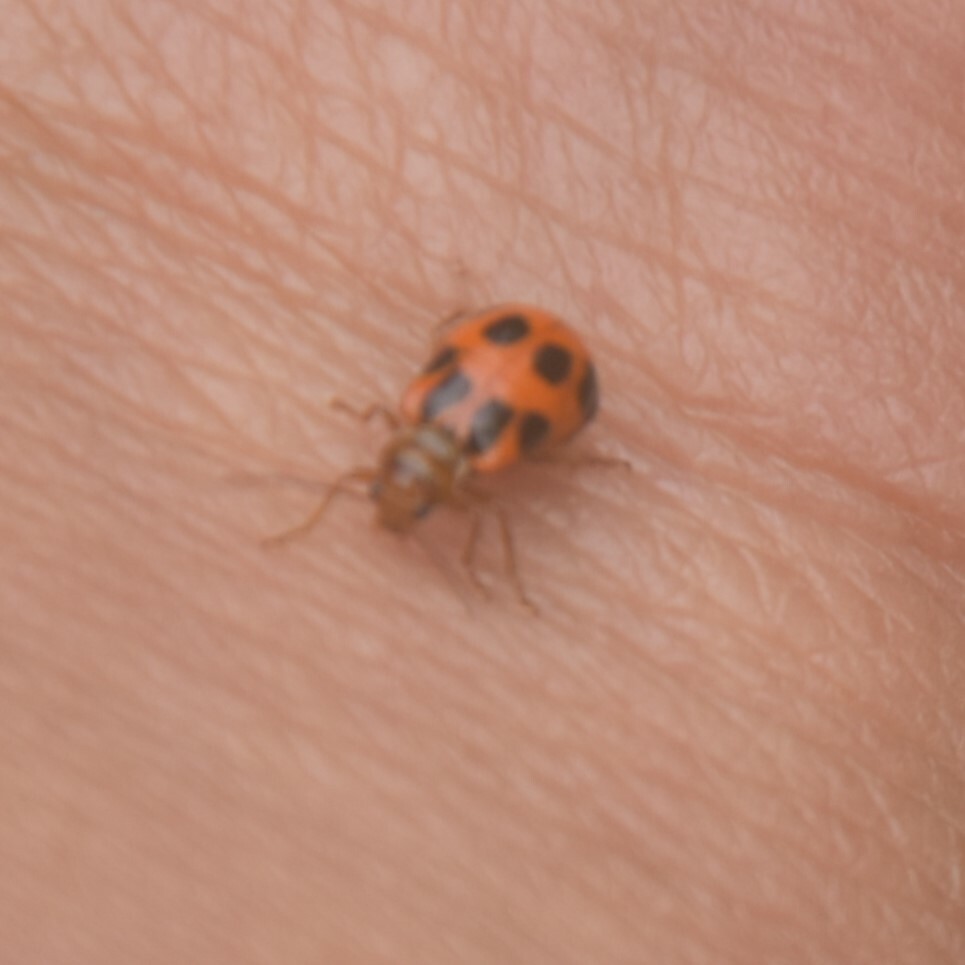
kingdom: Animalia
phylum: Arthropoda
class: Insecta
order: Coleoptera
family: Chrysomelidae
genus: Paridea
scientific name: Paridea
